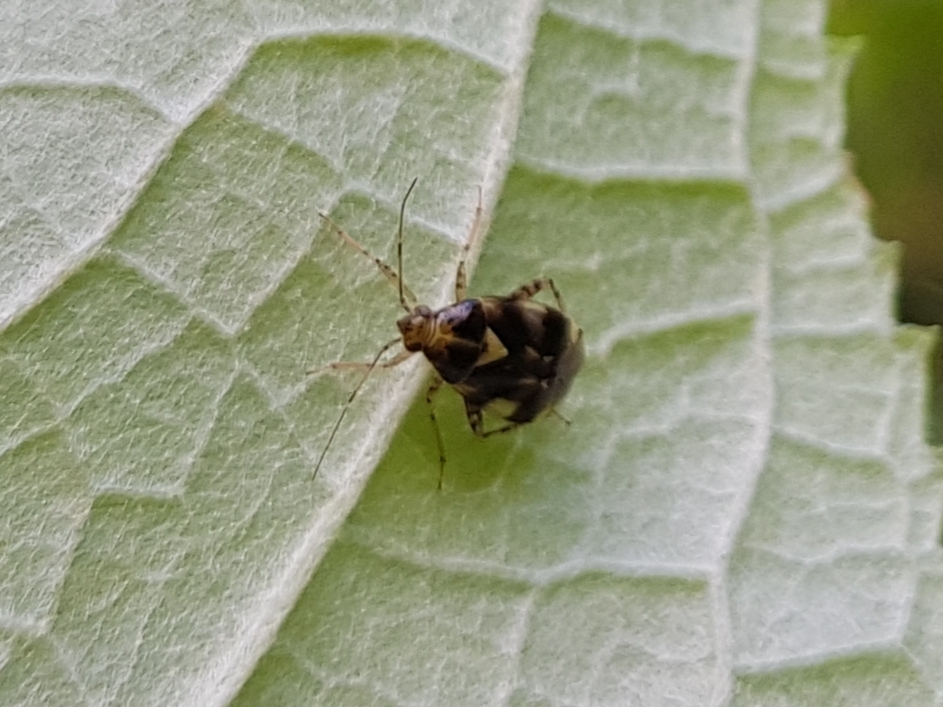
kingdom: Animalia
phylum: Arthropoda
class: Insecta
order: Hemiptera
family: Miridae
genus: Liocoris
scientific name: Liocoris tripustulatus
